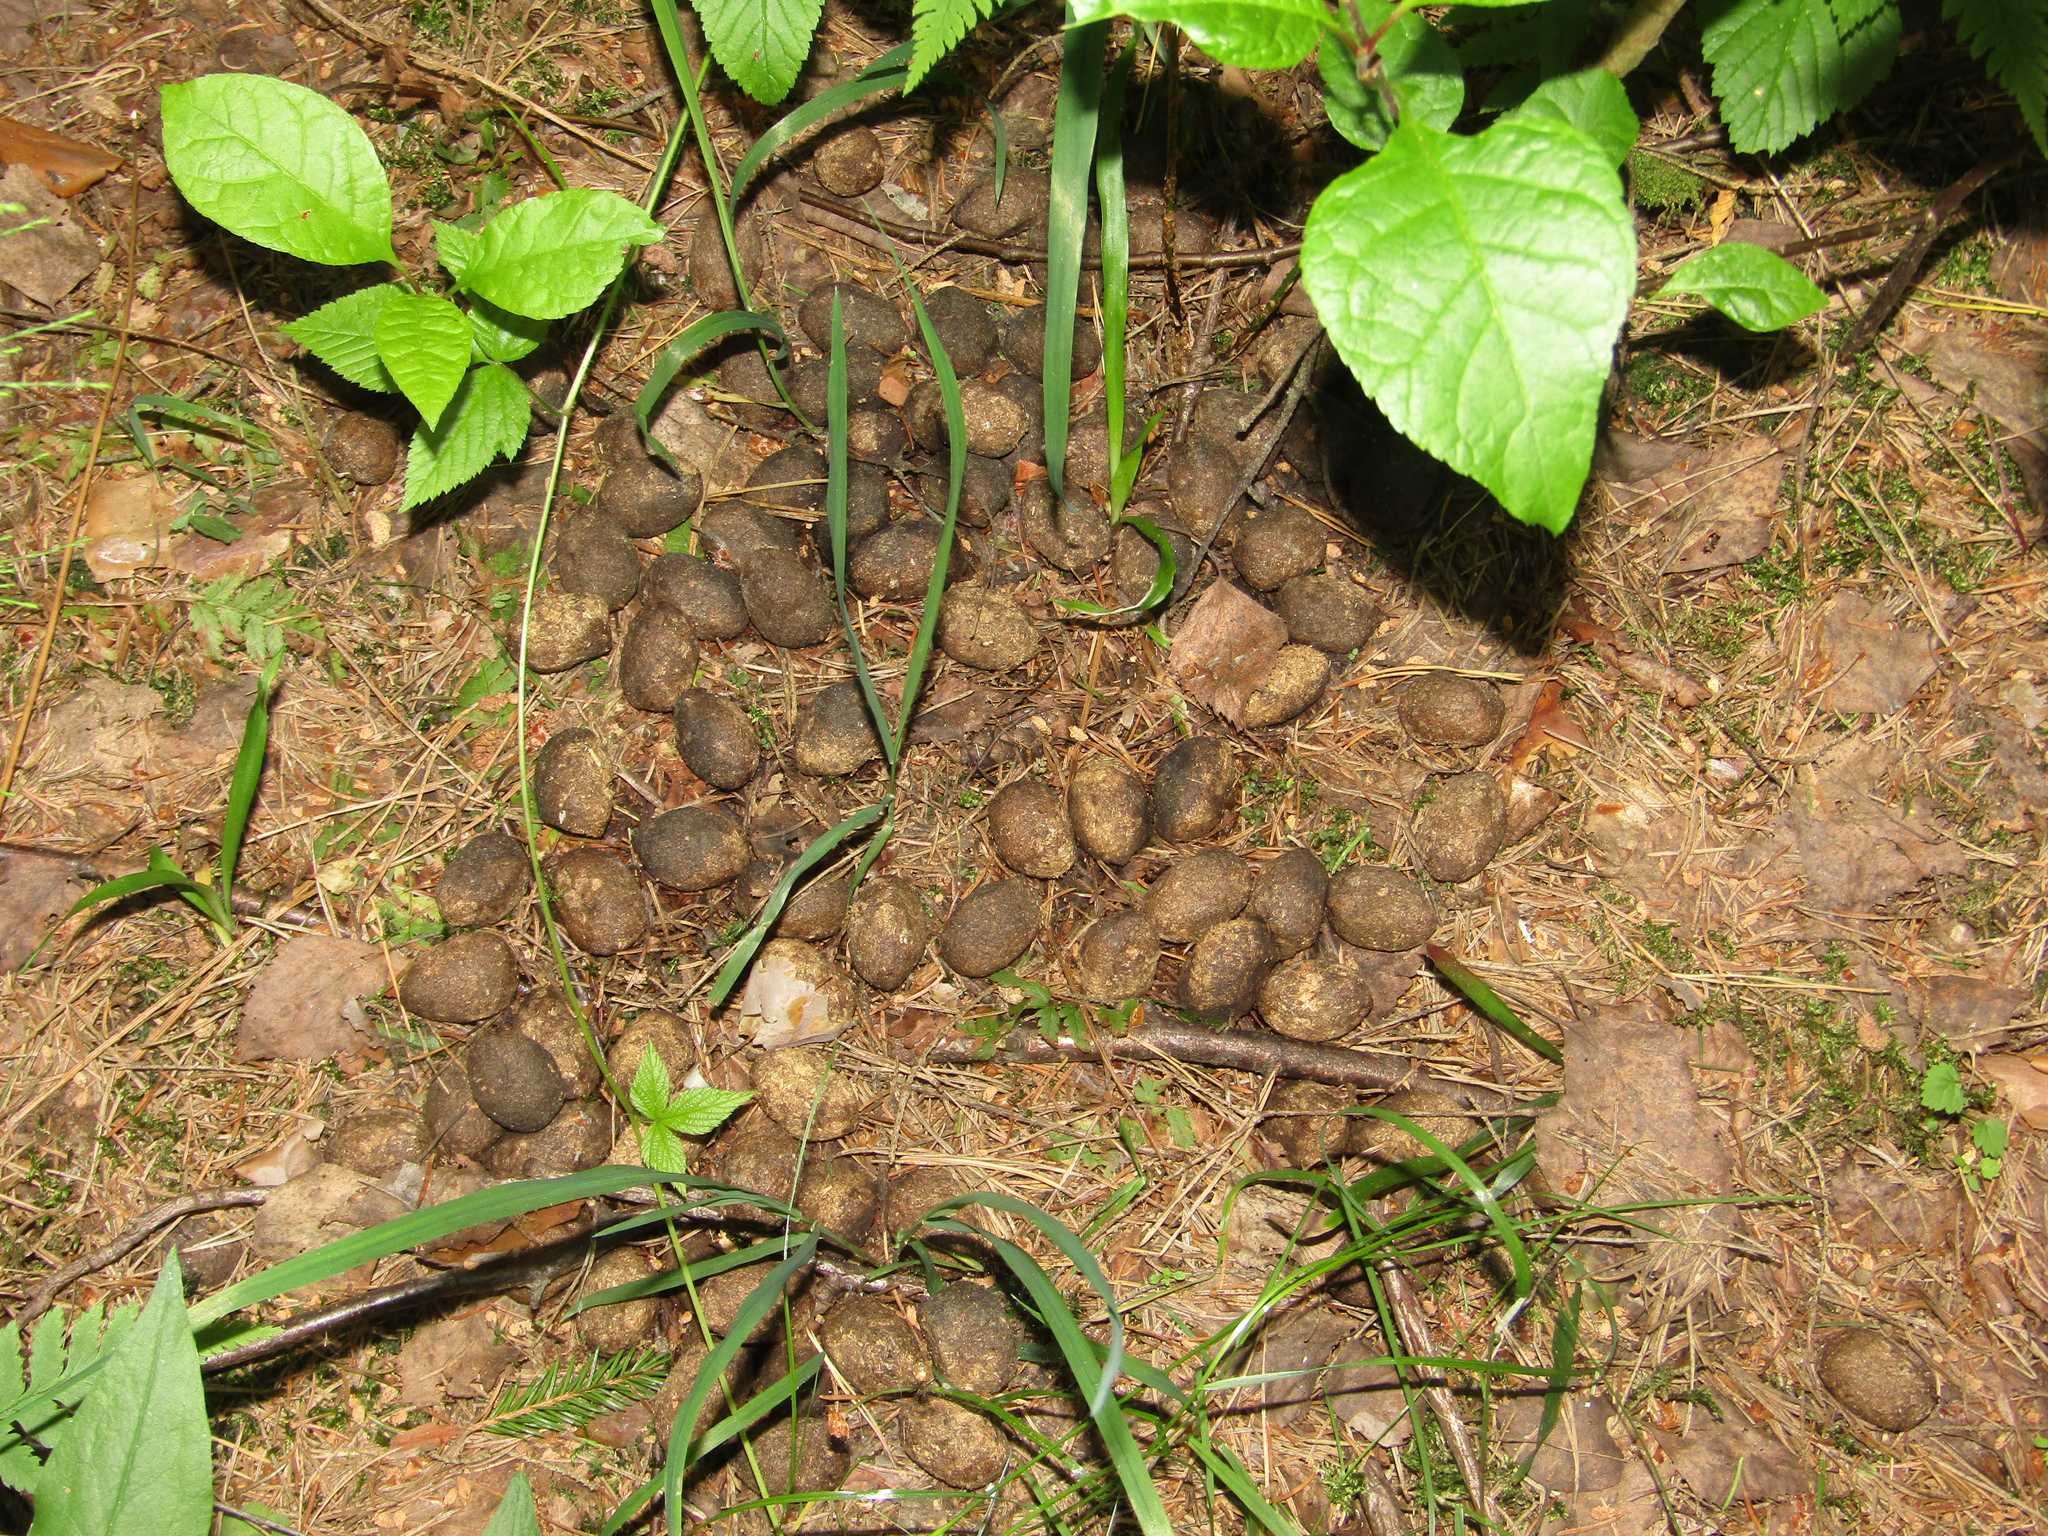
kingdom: Animalia
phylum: Chordata
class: Mammalia
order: Artiodactyla
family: Cervidae
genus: Alces
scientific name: Alces alces
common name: Moose
